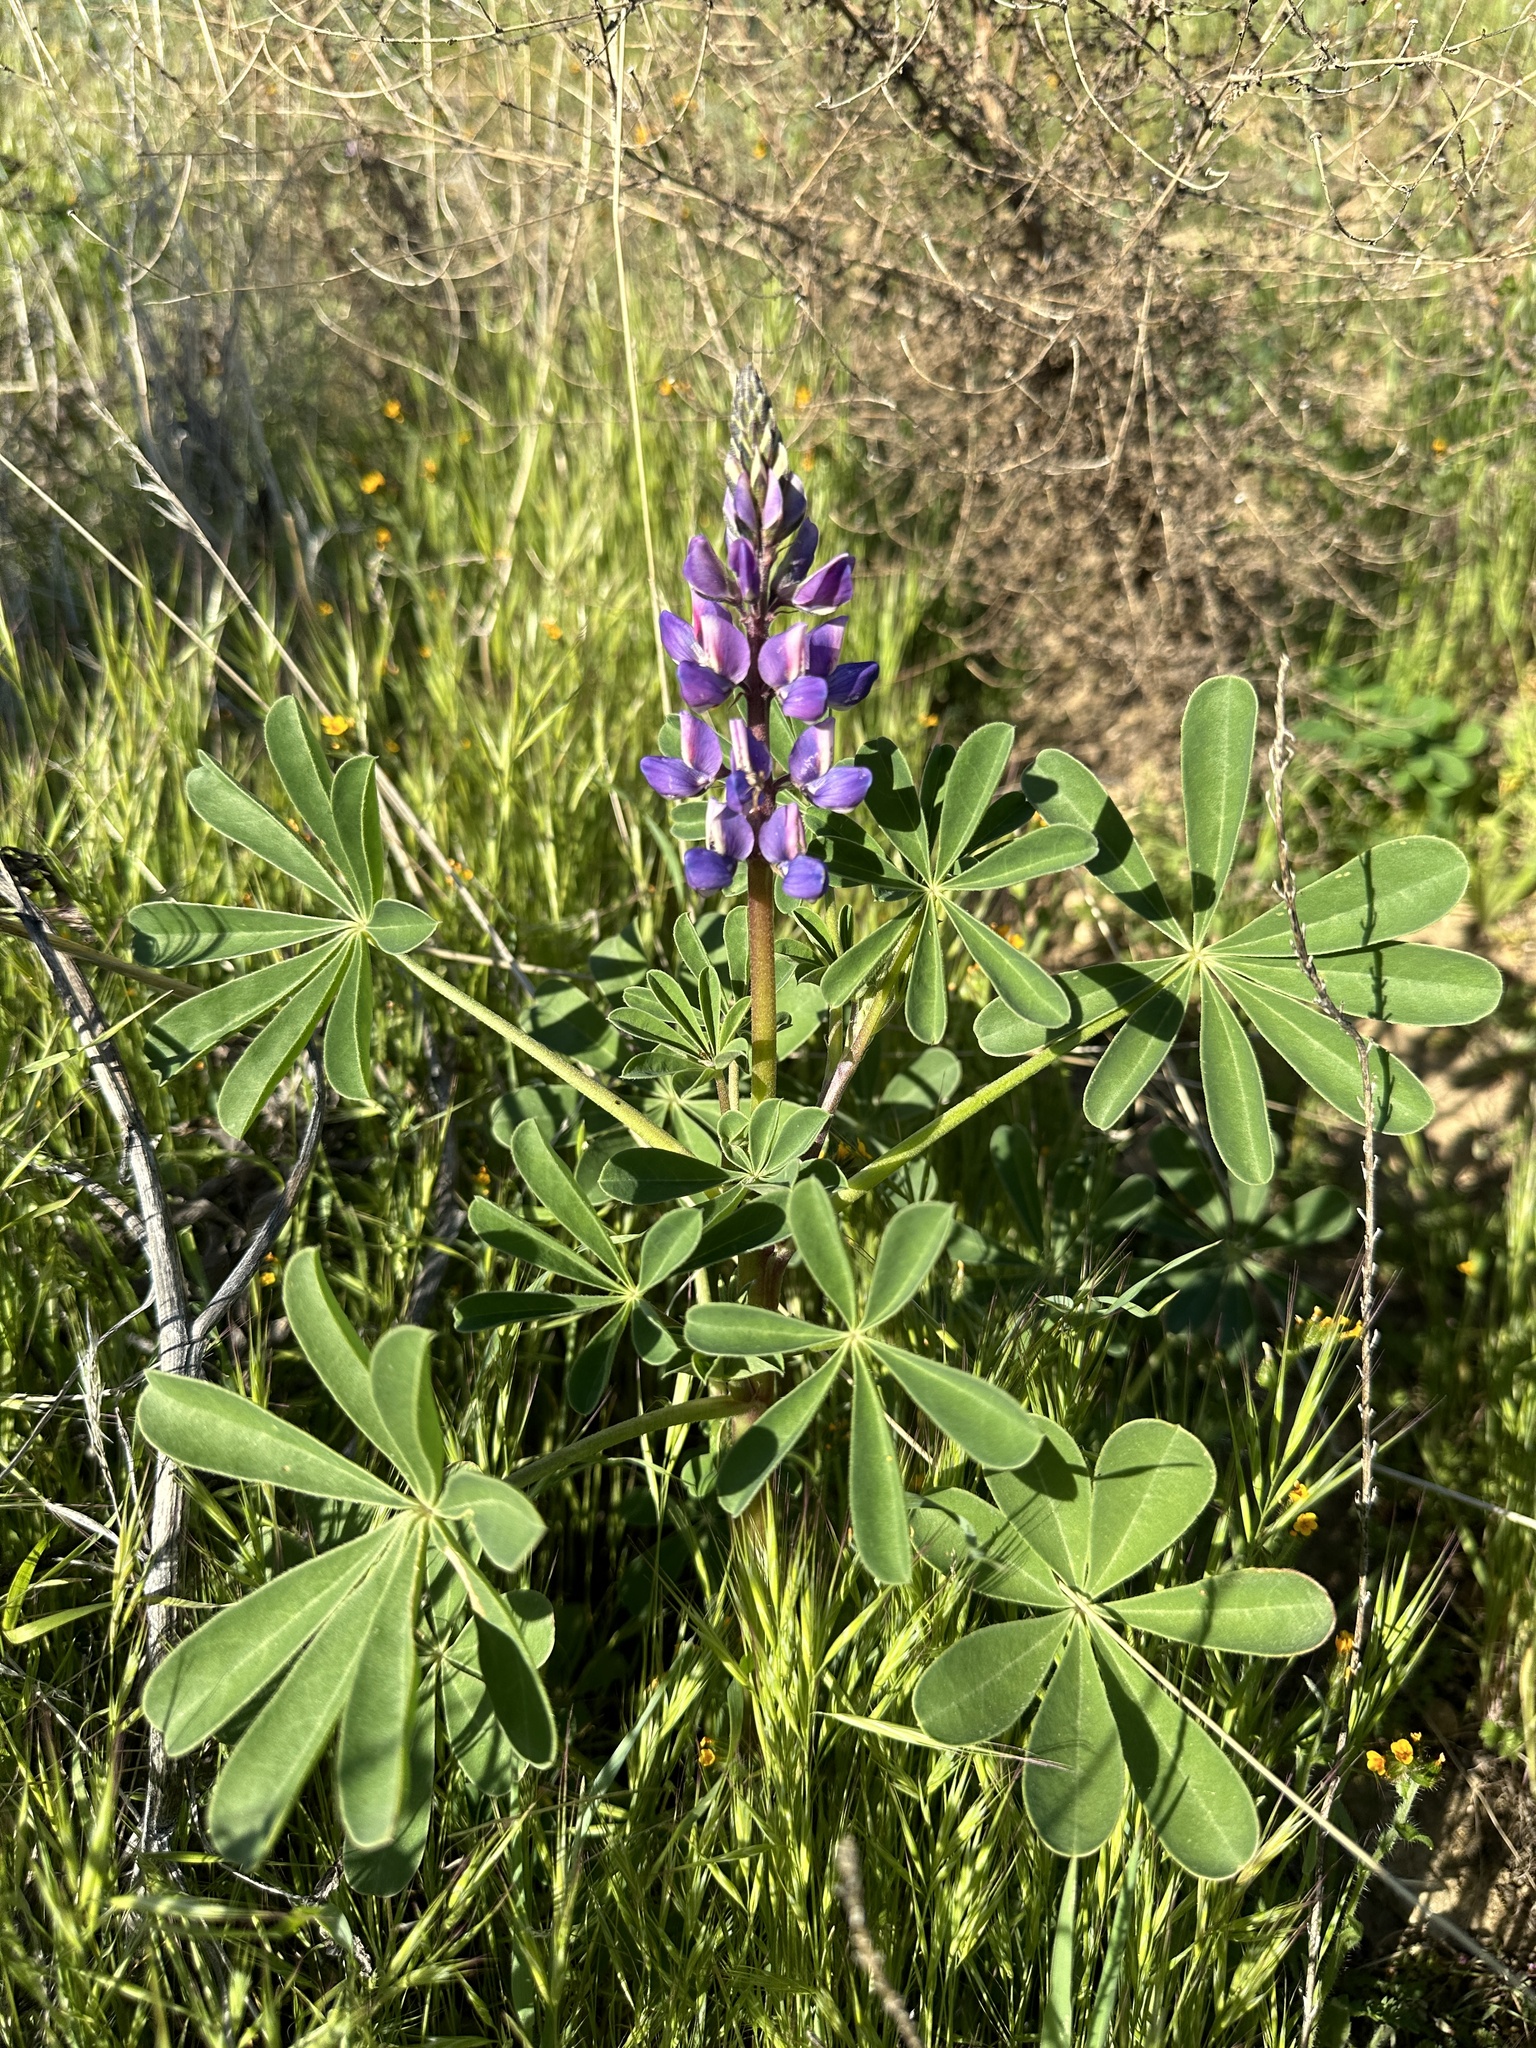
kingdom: Plantae
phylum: Tracheophyta
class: Magnoliopsida
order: Fabales
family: Fabaceae
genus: Lupinus
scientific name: Lupinus succulentus
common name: Arroyo lupine
